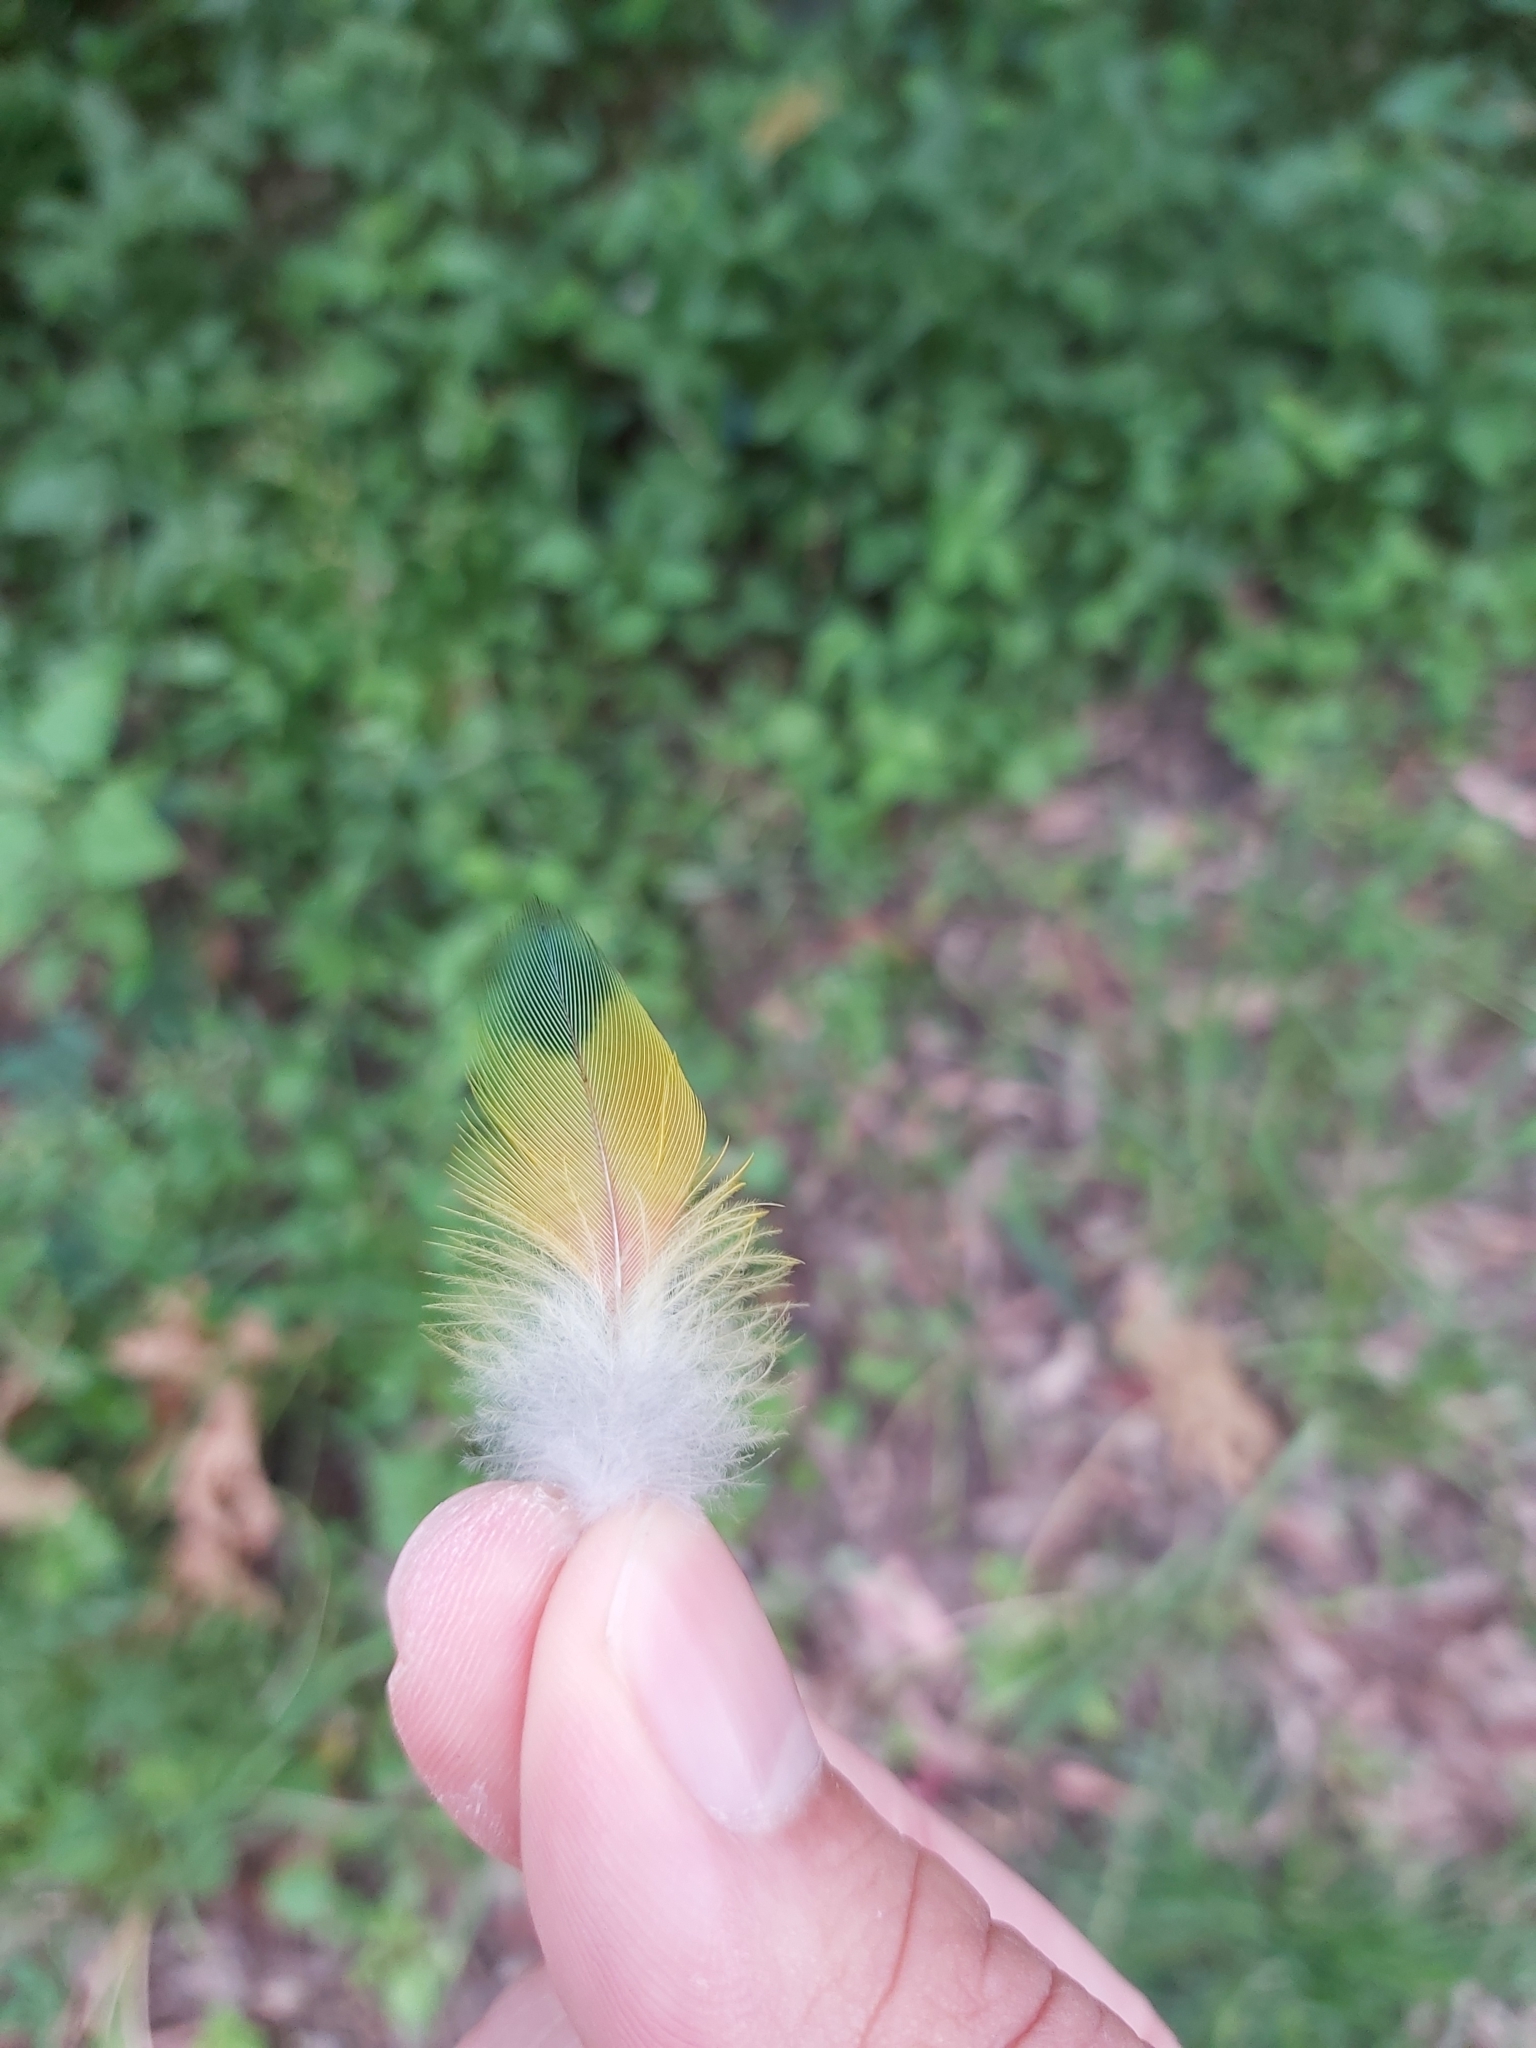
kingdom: Animalia
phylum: Chordata
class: Aves
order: Psittaciformes
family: Psittacidae
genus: Trichoglossus
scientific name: Trichoglossus haematodus
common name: Coconut lorikeet
